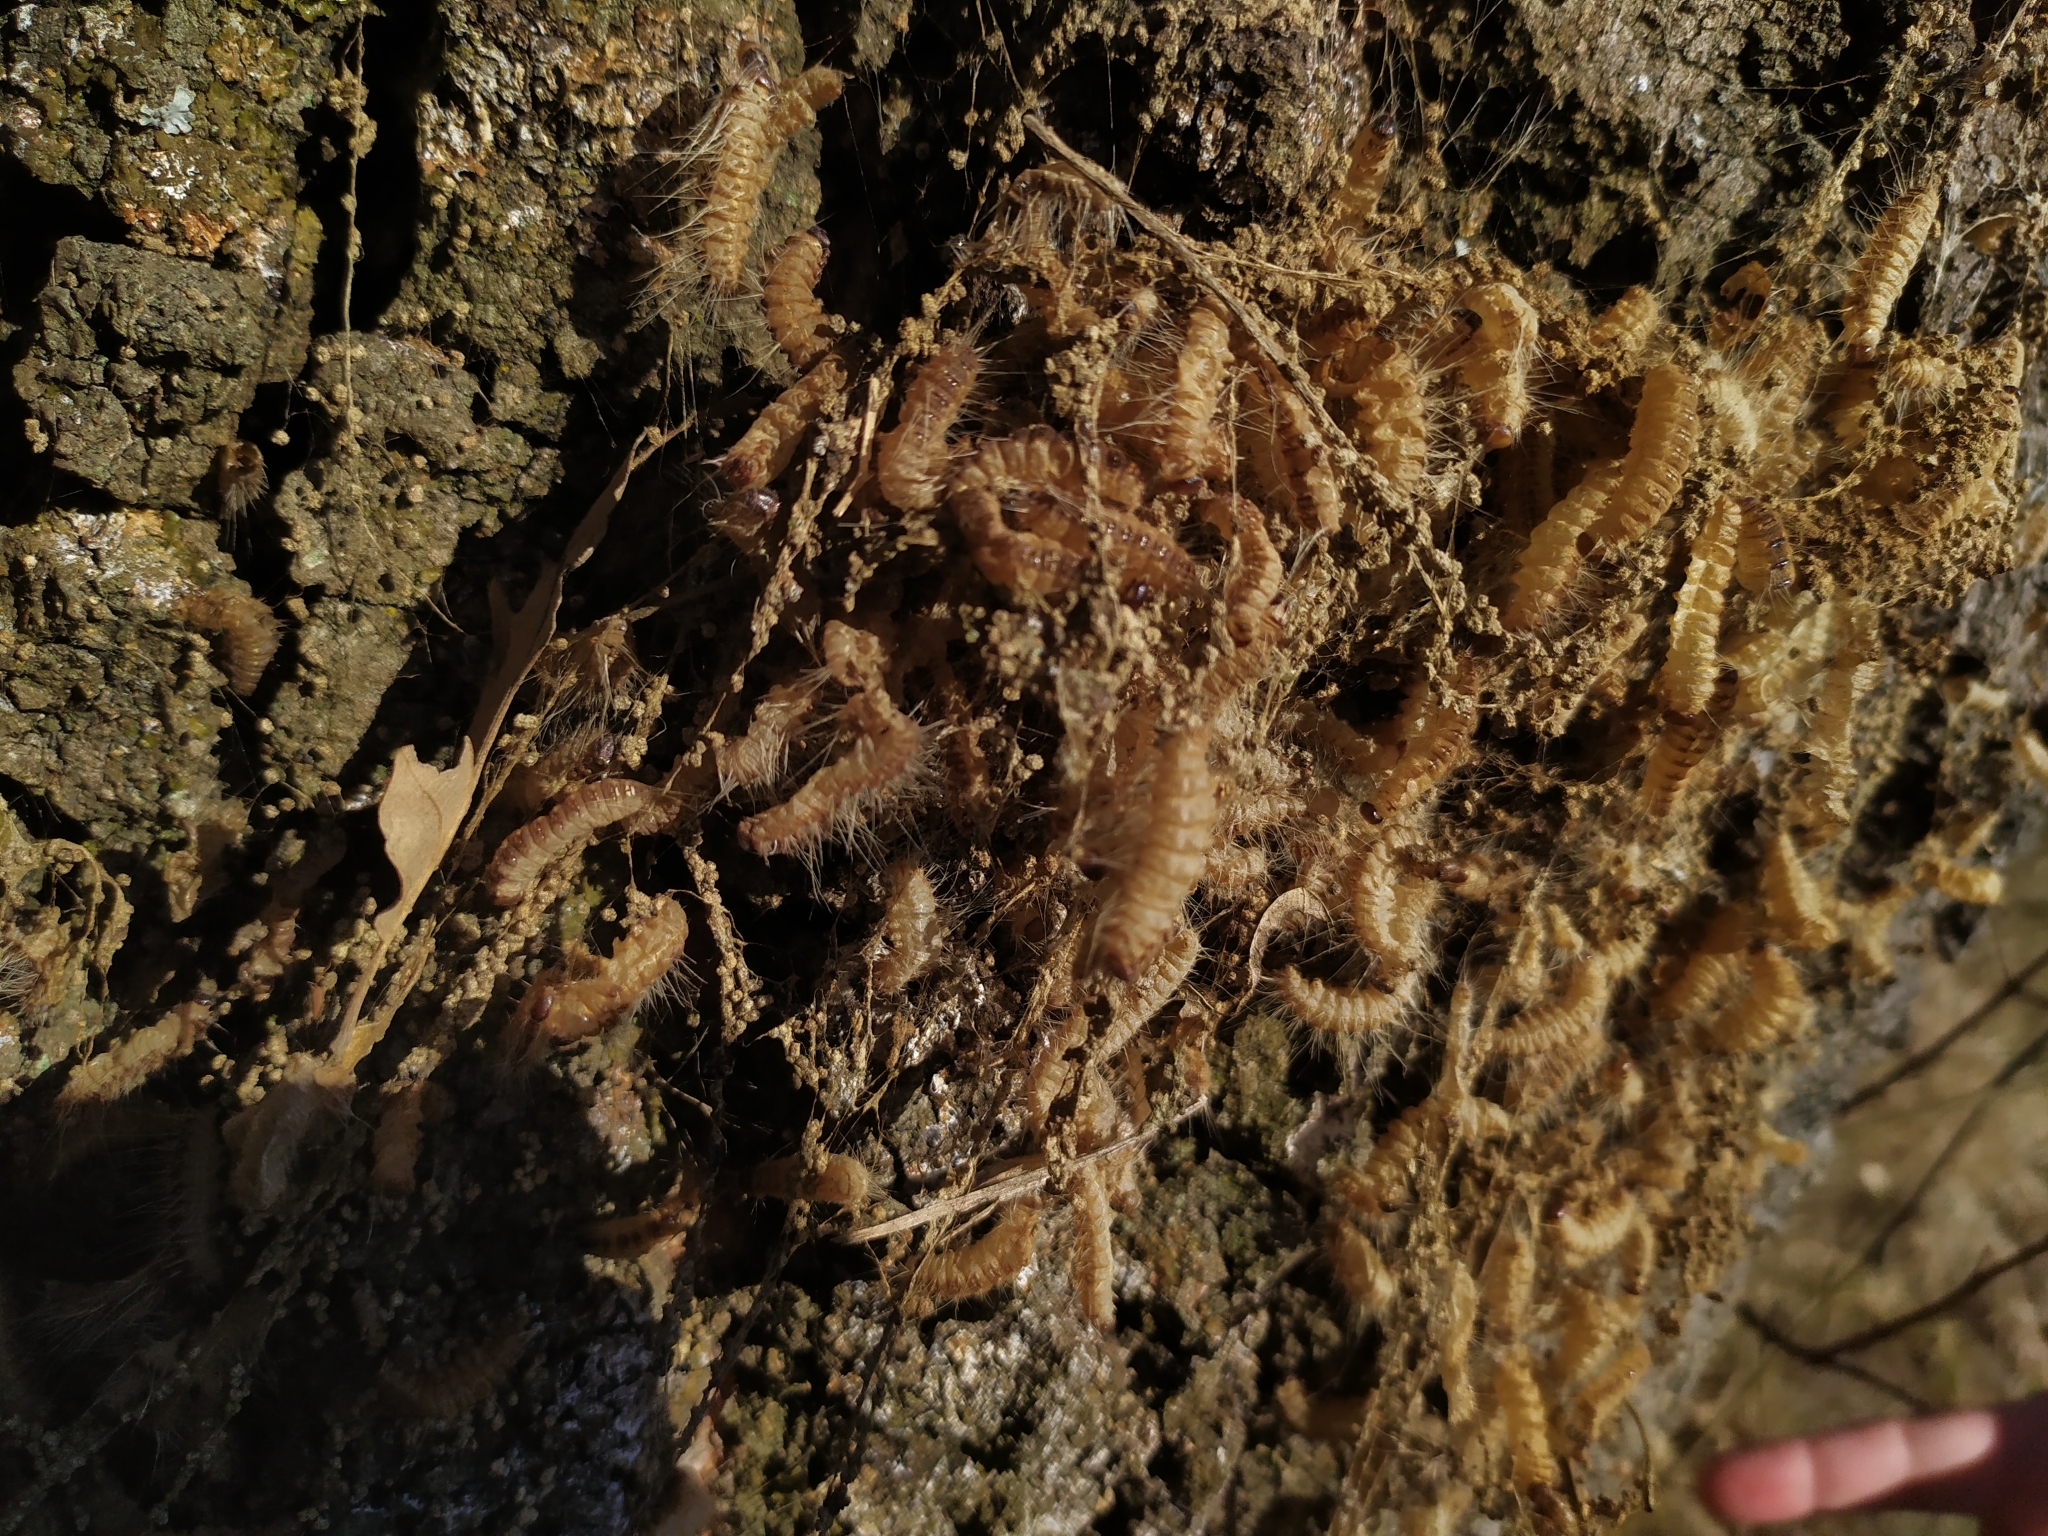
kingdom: Animalia
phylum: Arthropoda
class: Insecta
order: Lepidoptera
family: Notodontidae
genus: Thaumetopoea
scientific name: Thaumetopoea processionea
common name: Oak processionea
